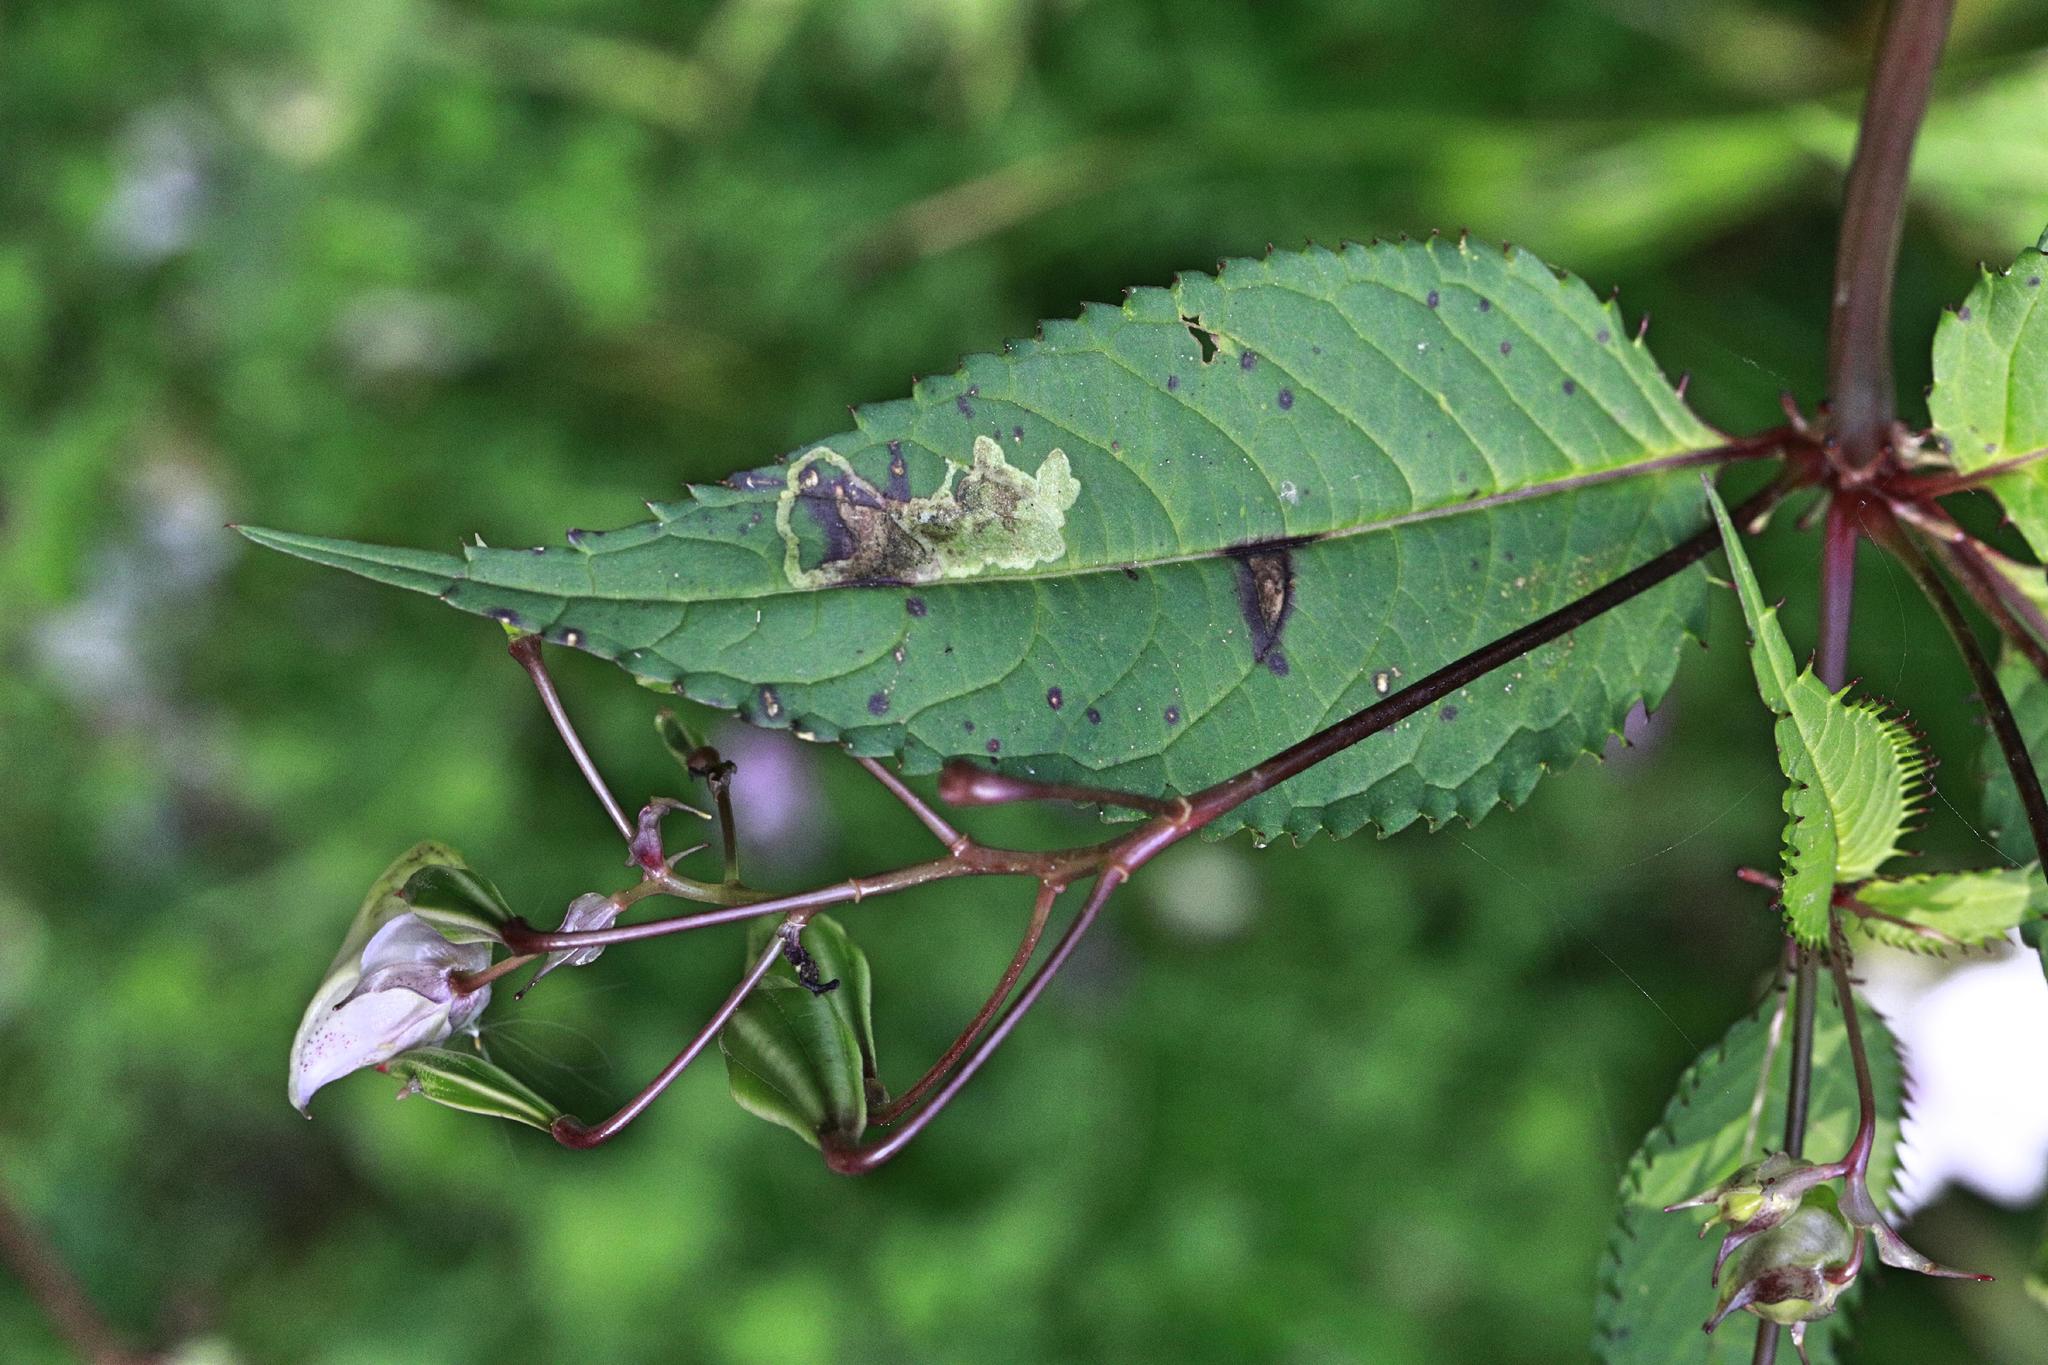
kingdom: Animalia
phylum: Arthropoda
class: Insecta
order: Diptera
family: Agromyzidae
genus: Phytoliriomyza
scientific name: Phytoliriomyza melampyga
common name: Jewelweed leaf-miner fly
